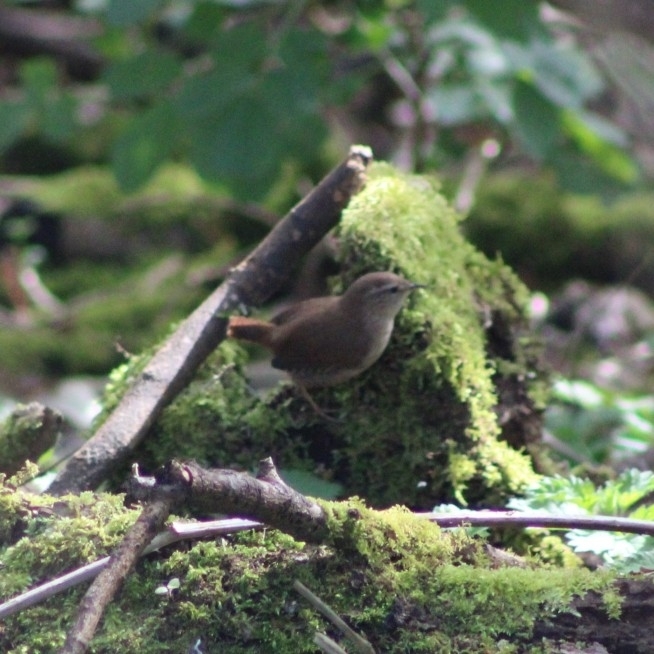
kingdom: Animalia
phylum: Chordata
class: Aves
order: Passeriformes
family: Troglodytidae
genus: Troglodytes
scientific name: Troglodytes troglodytes
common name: Eurasian wren
